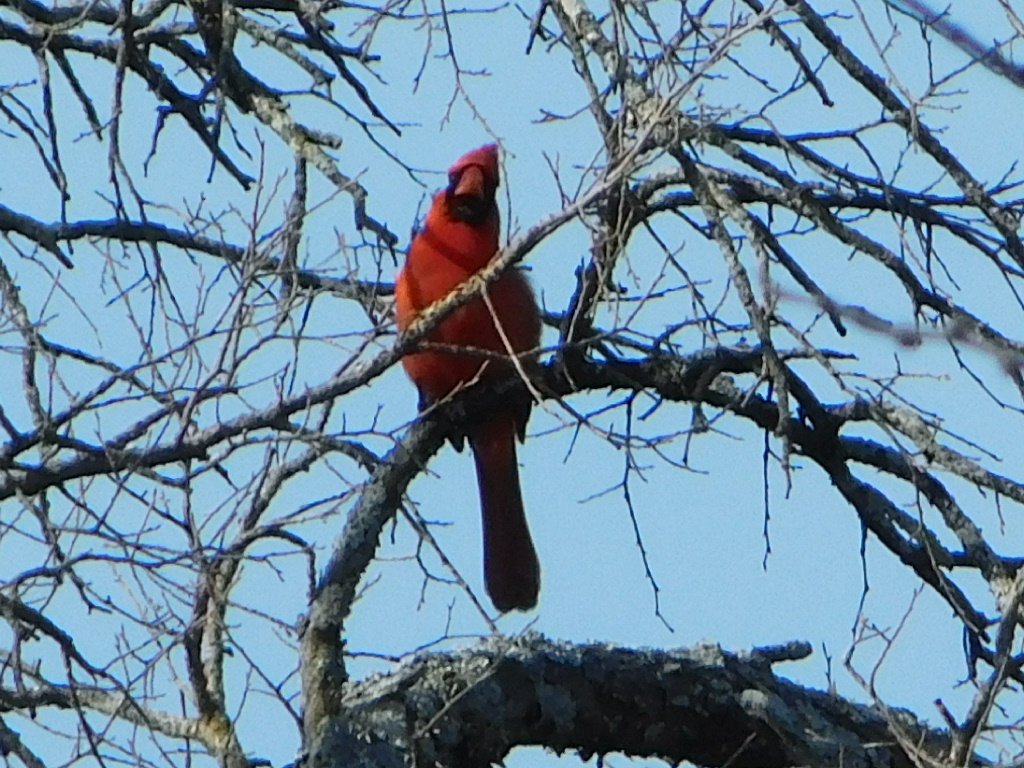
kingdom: Animalia
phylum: Chordata
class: Aves
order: Passeriformes
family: Cardinalidae
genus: Cardinalis
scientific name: Cardinalis cardinalis
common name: Northern cardinal
